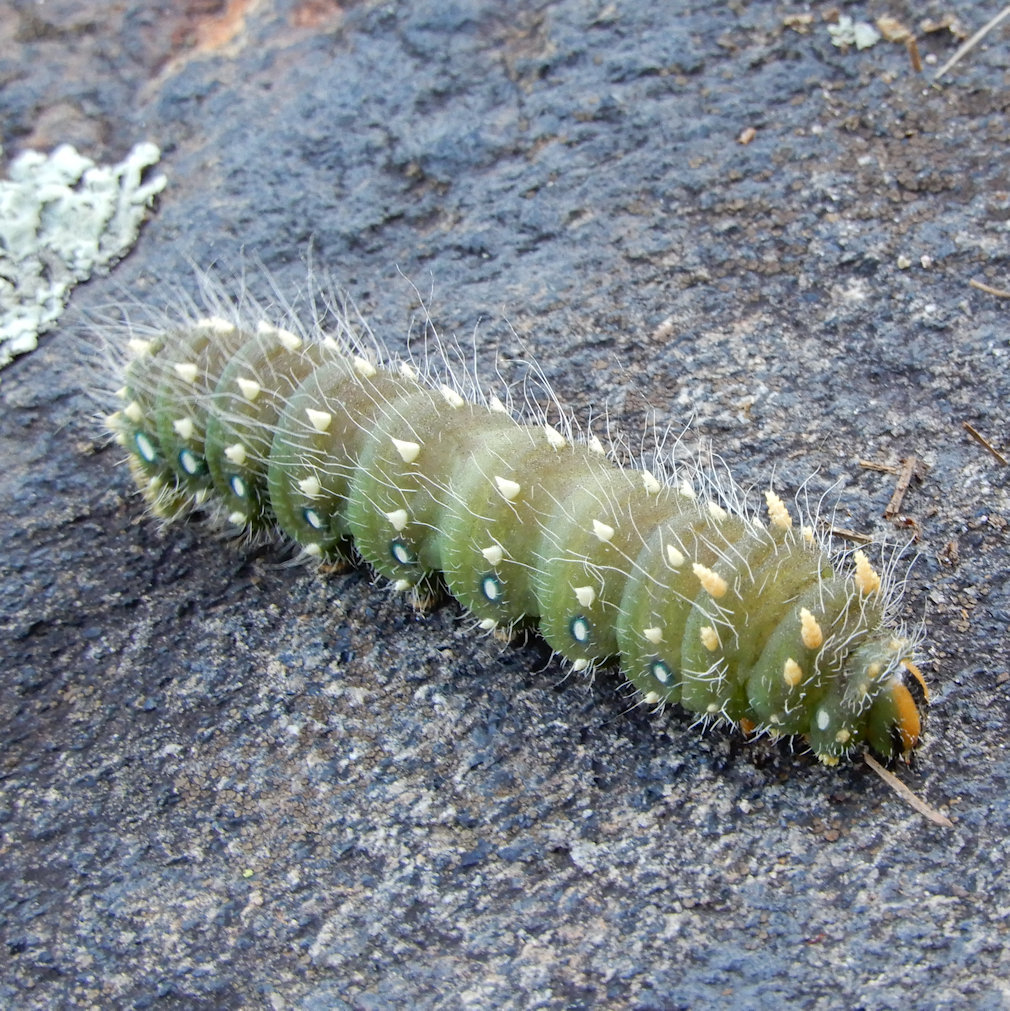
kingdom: Animalia
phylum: Arthropoda
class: Insecta
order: Lepidoptera
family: Saturniidae
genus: Eacles
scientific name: Eacles
